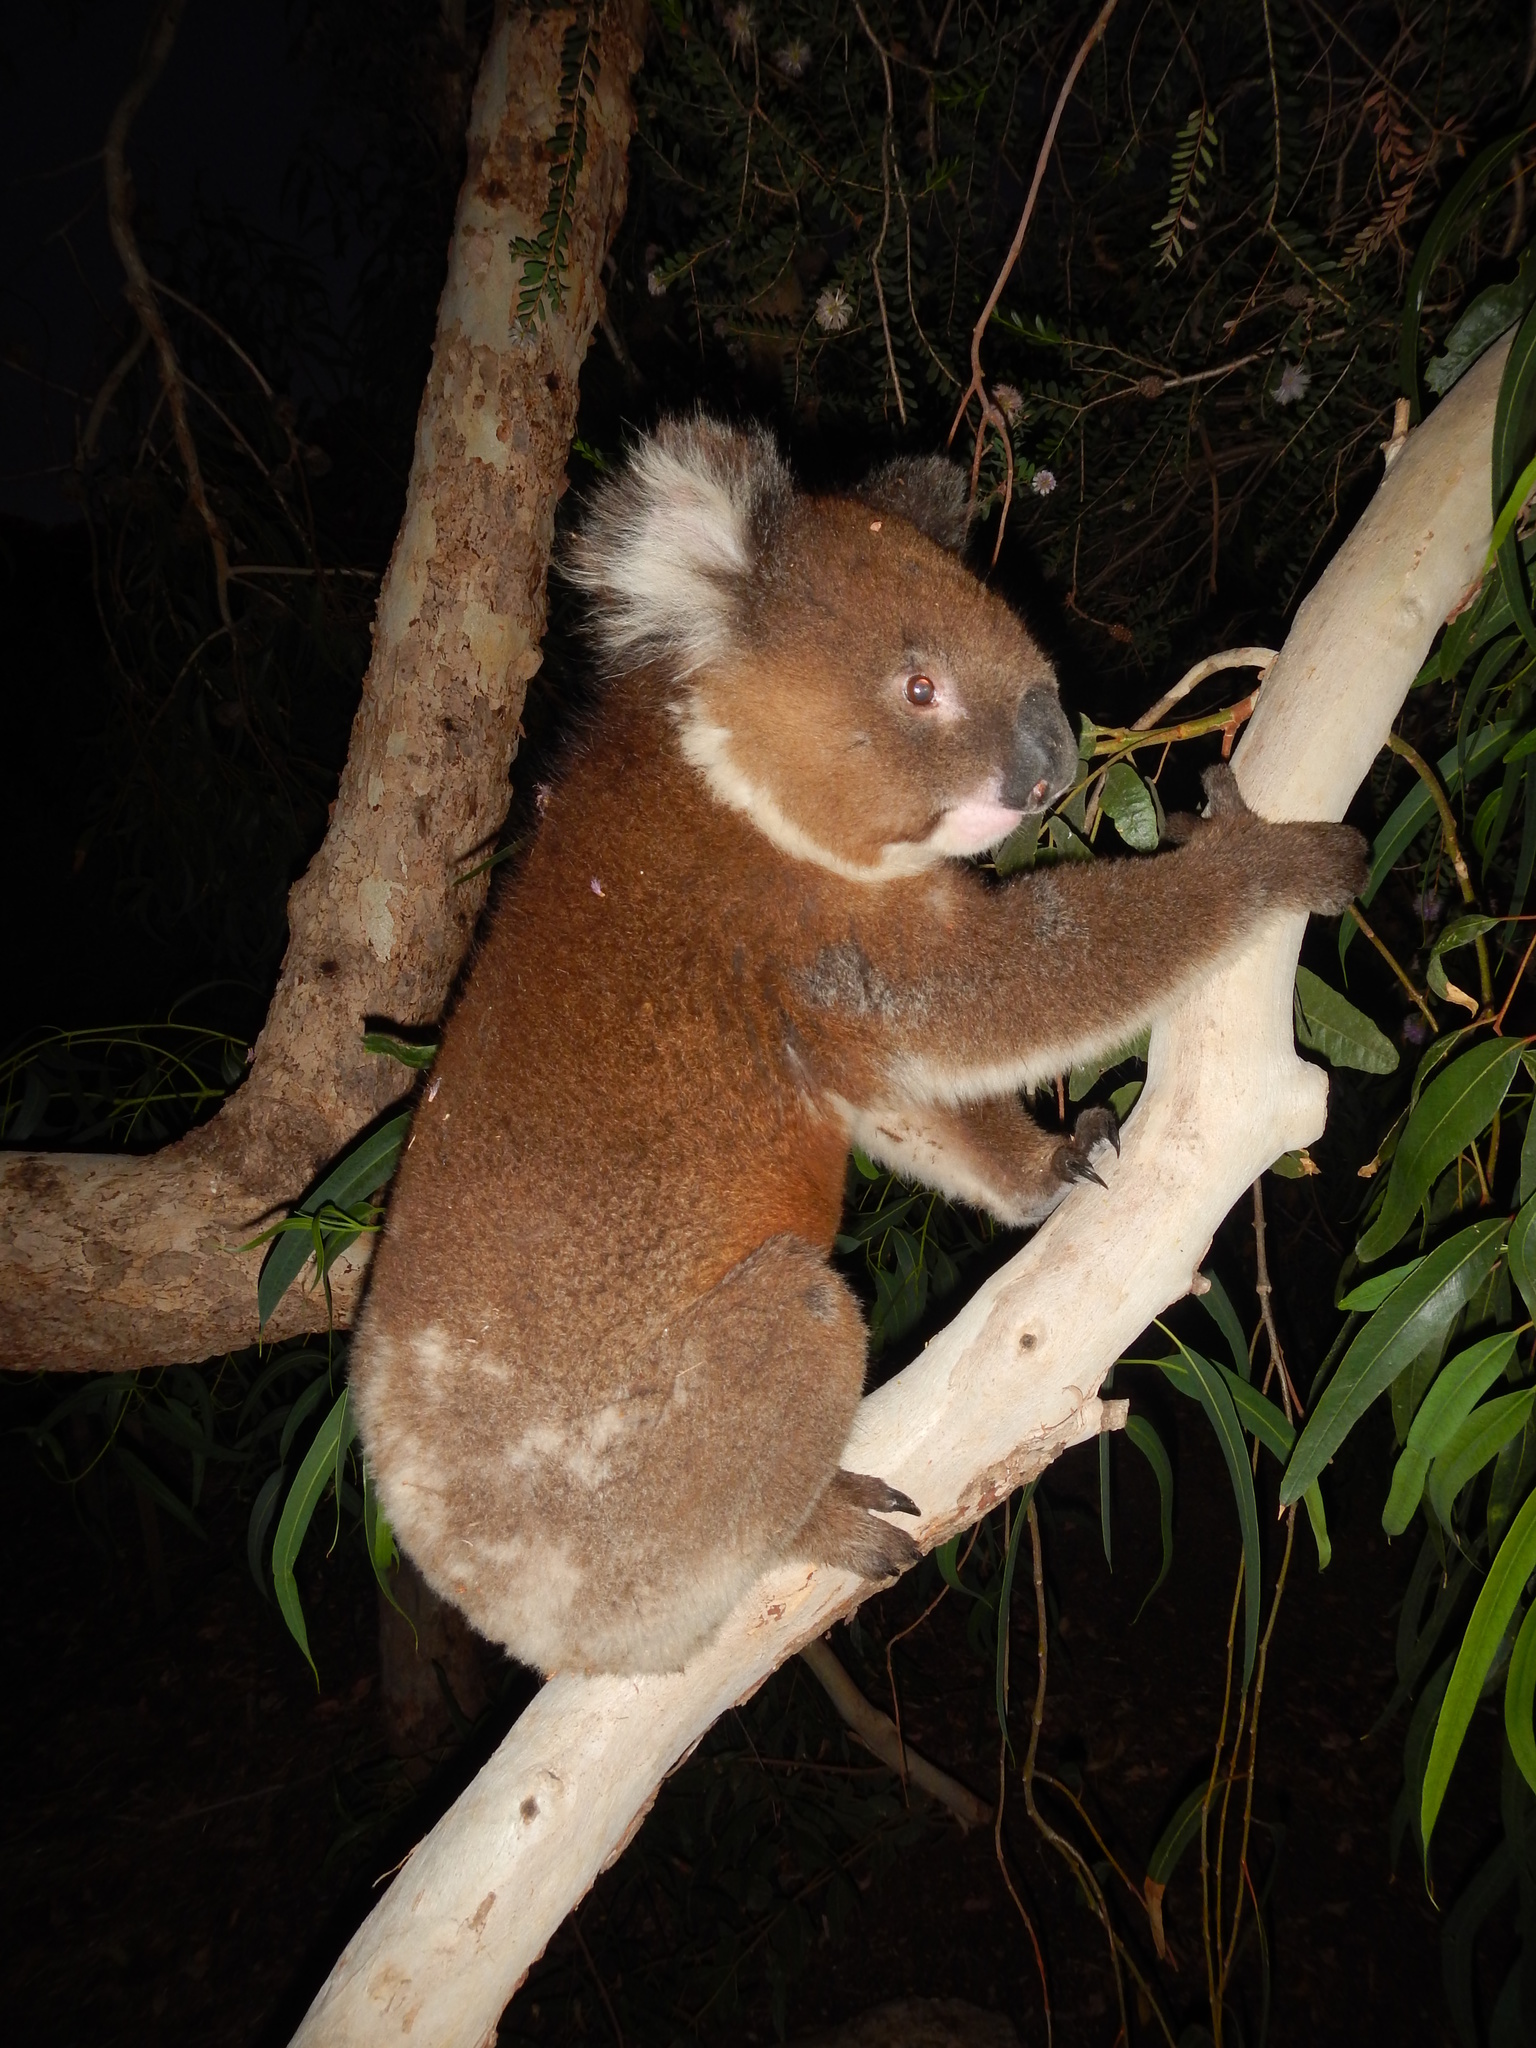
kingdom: Animalia
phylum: Chordata
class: Mammalia
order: Diprotodontia
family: Phascolarctidae
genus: Phascolarctos
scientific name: Phascolarctos cinereus
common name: Koala
